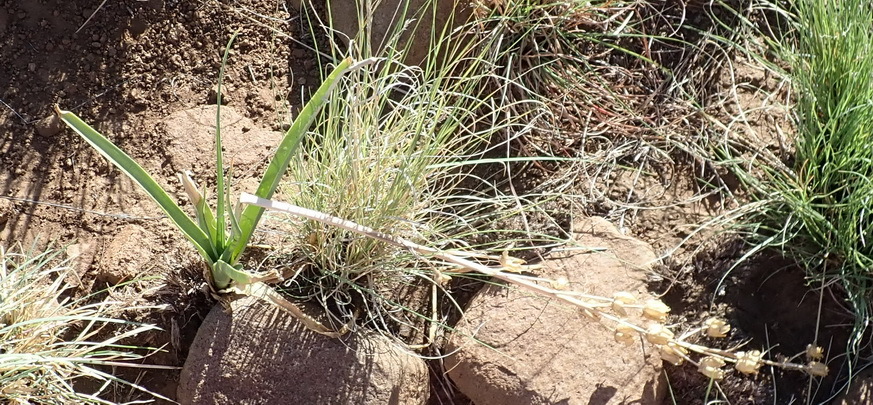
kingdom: Plantae
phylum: Tracheophyta
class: Liliopsida
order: Asparagales
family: Asparagaceae
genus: Albuca
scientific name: Albuca setosa
